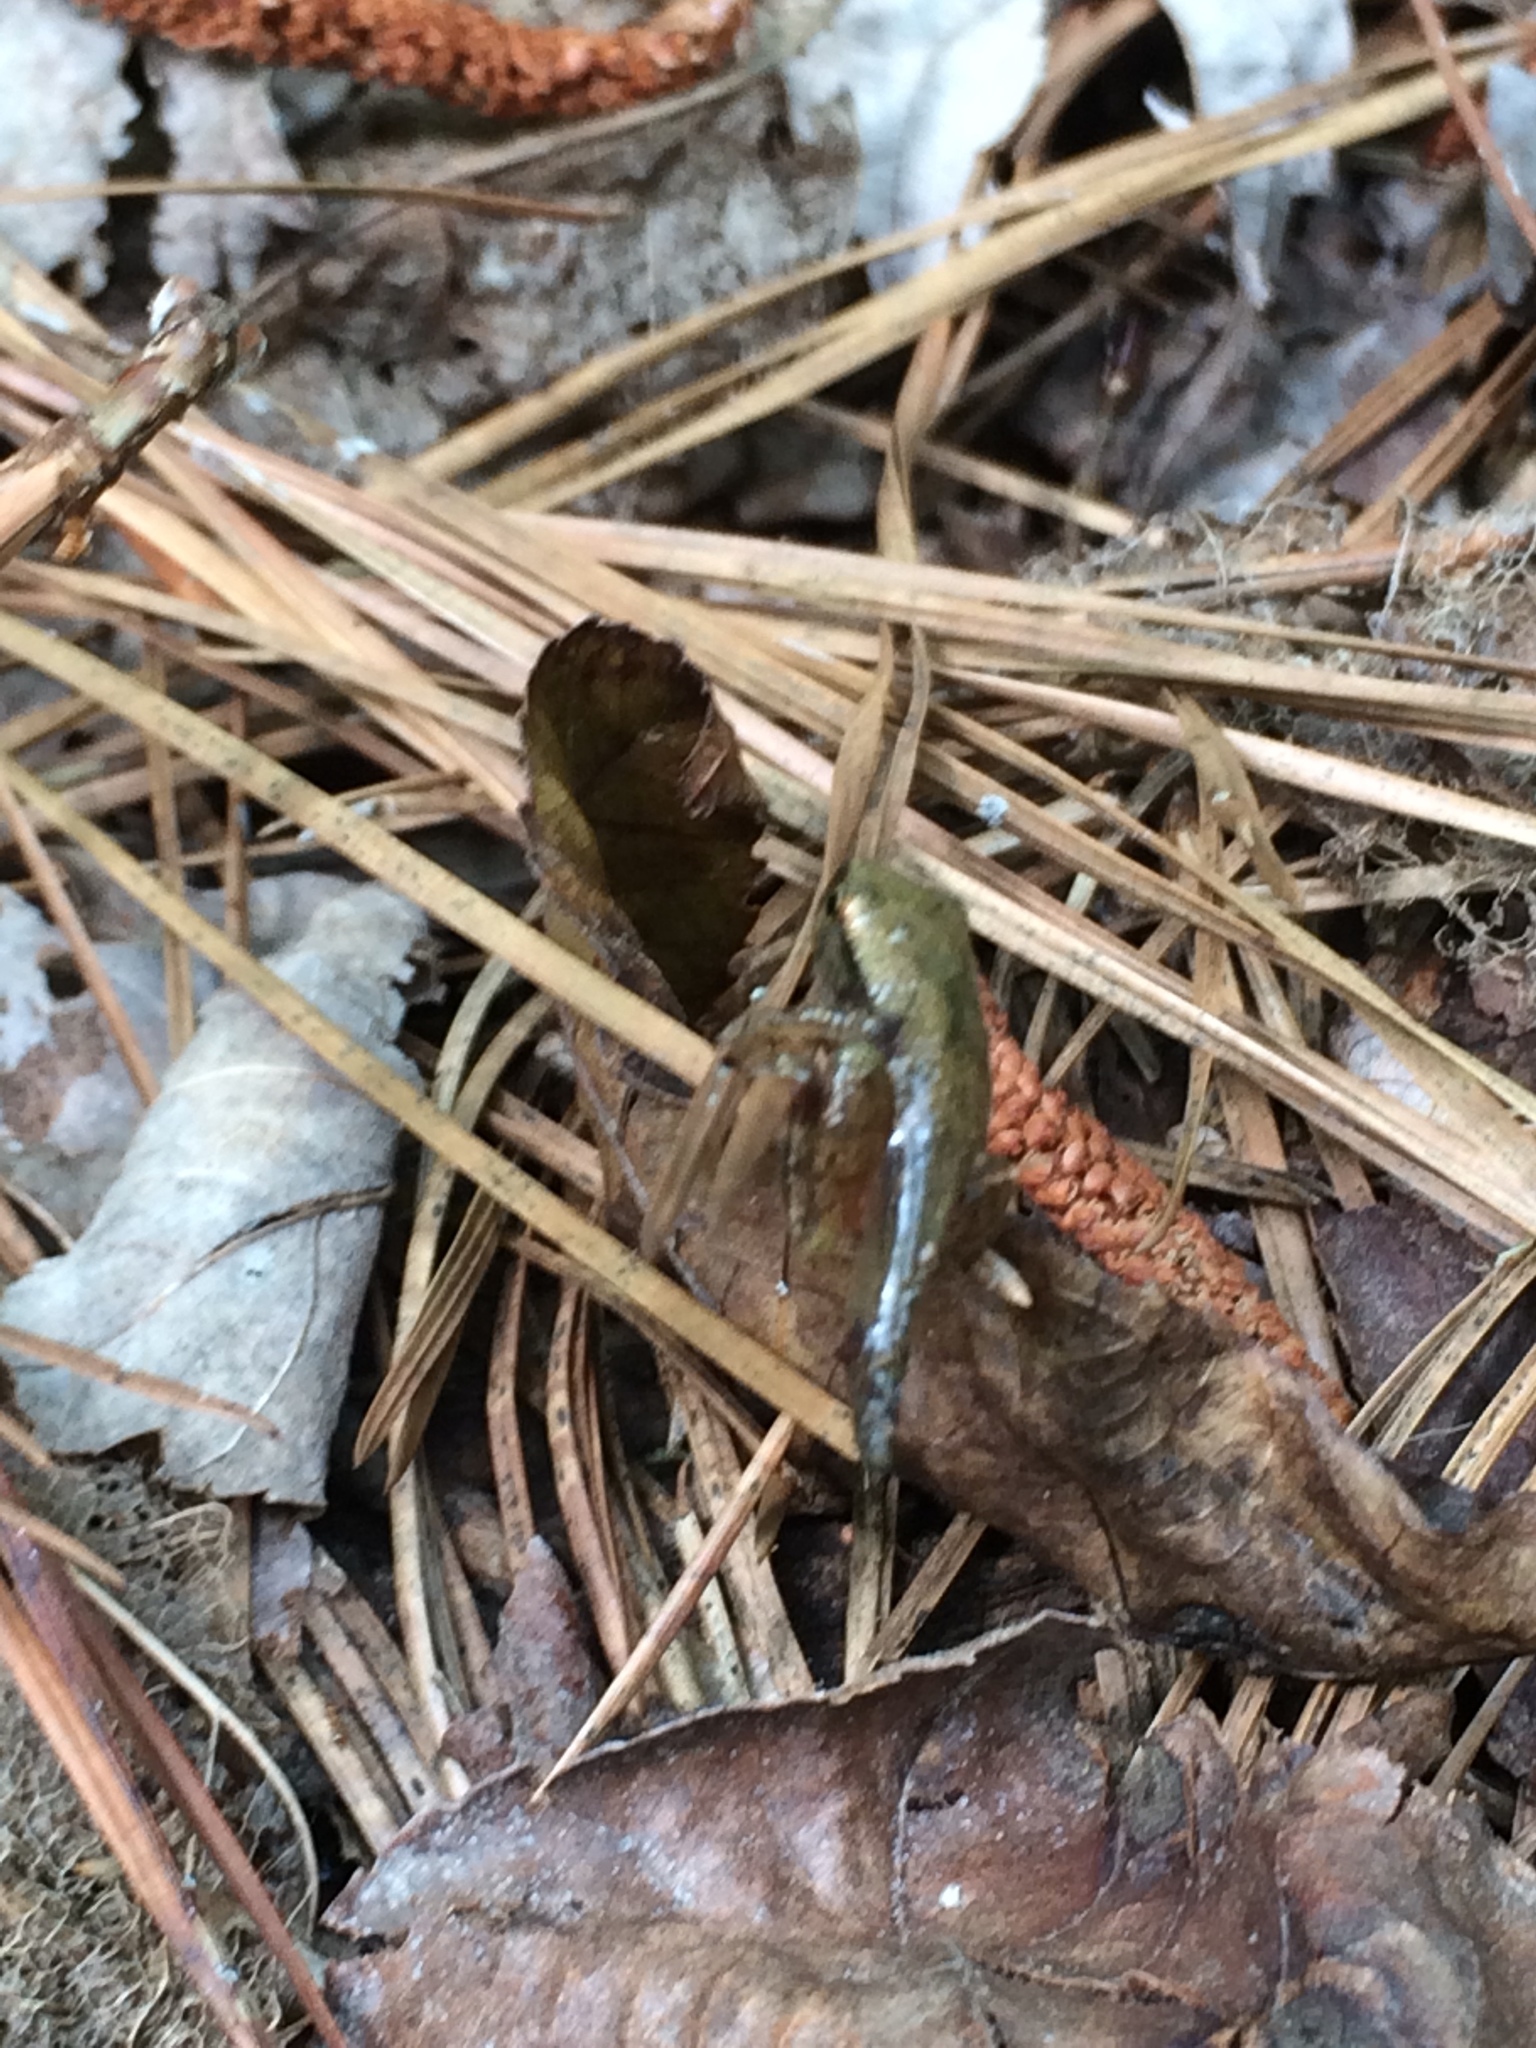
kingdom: Animalia
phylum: Chordata
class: Amphibia
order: Anura
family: Hylidae
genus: Pseudacris
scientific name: Pseudacris crucifer
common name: Spring peeper
